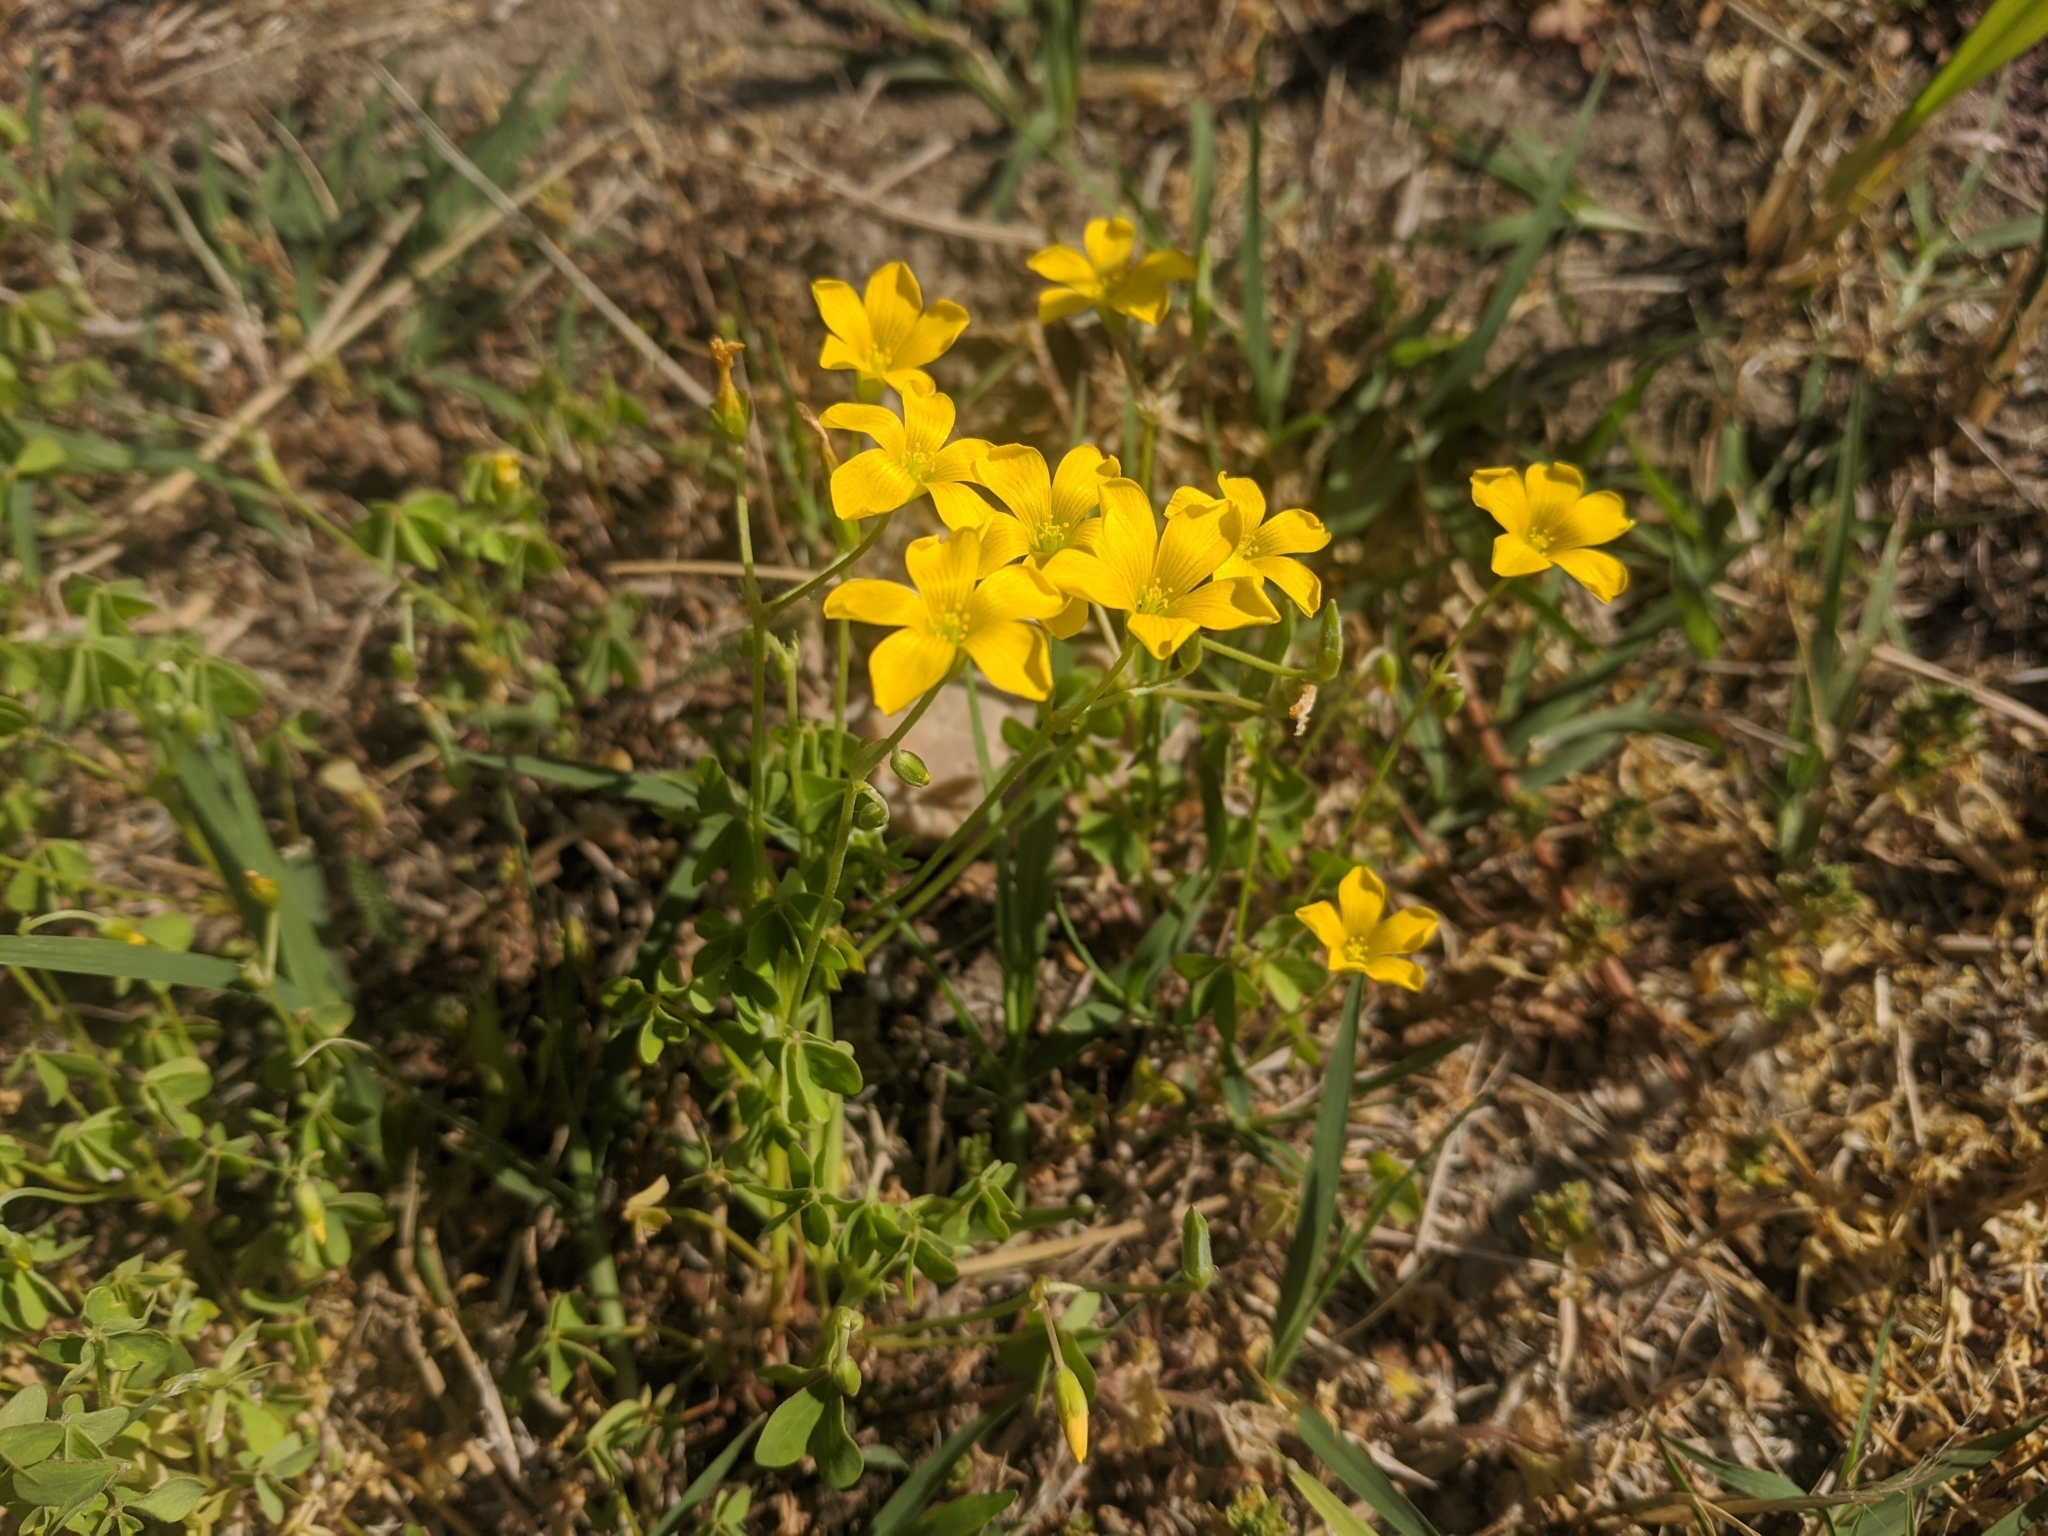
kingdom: Plantae
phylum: Tracheophyta
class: Magnoliopsida
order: Oxalidales
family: Oxalidaceae
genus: Oxalis
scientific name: Oxalis dillenii
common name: Sussex yellow-sorrel
